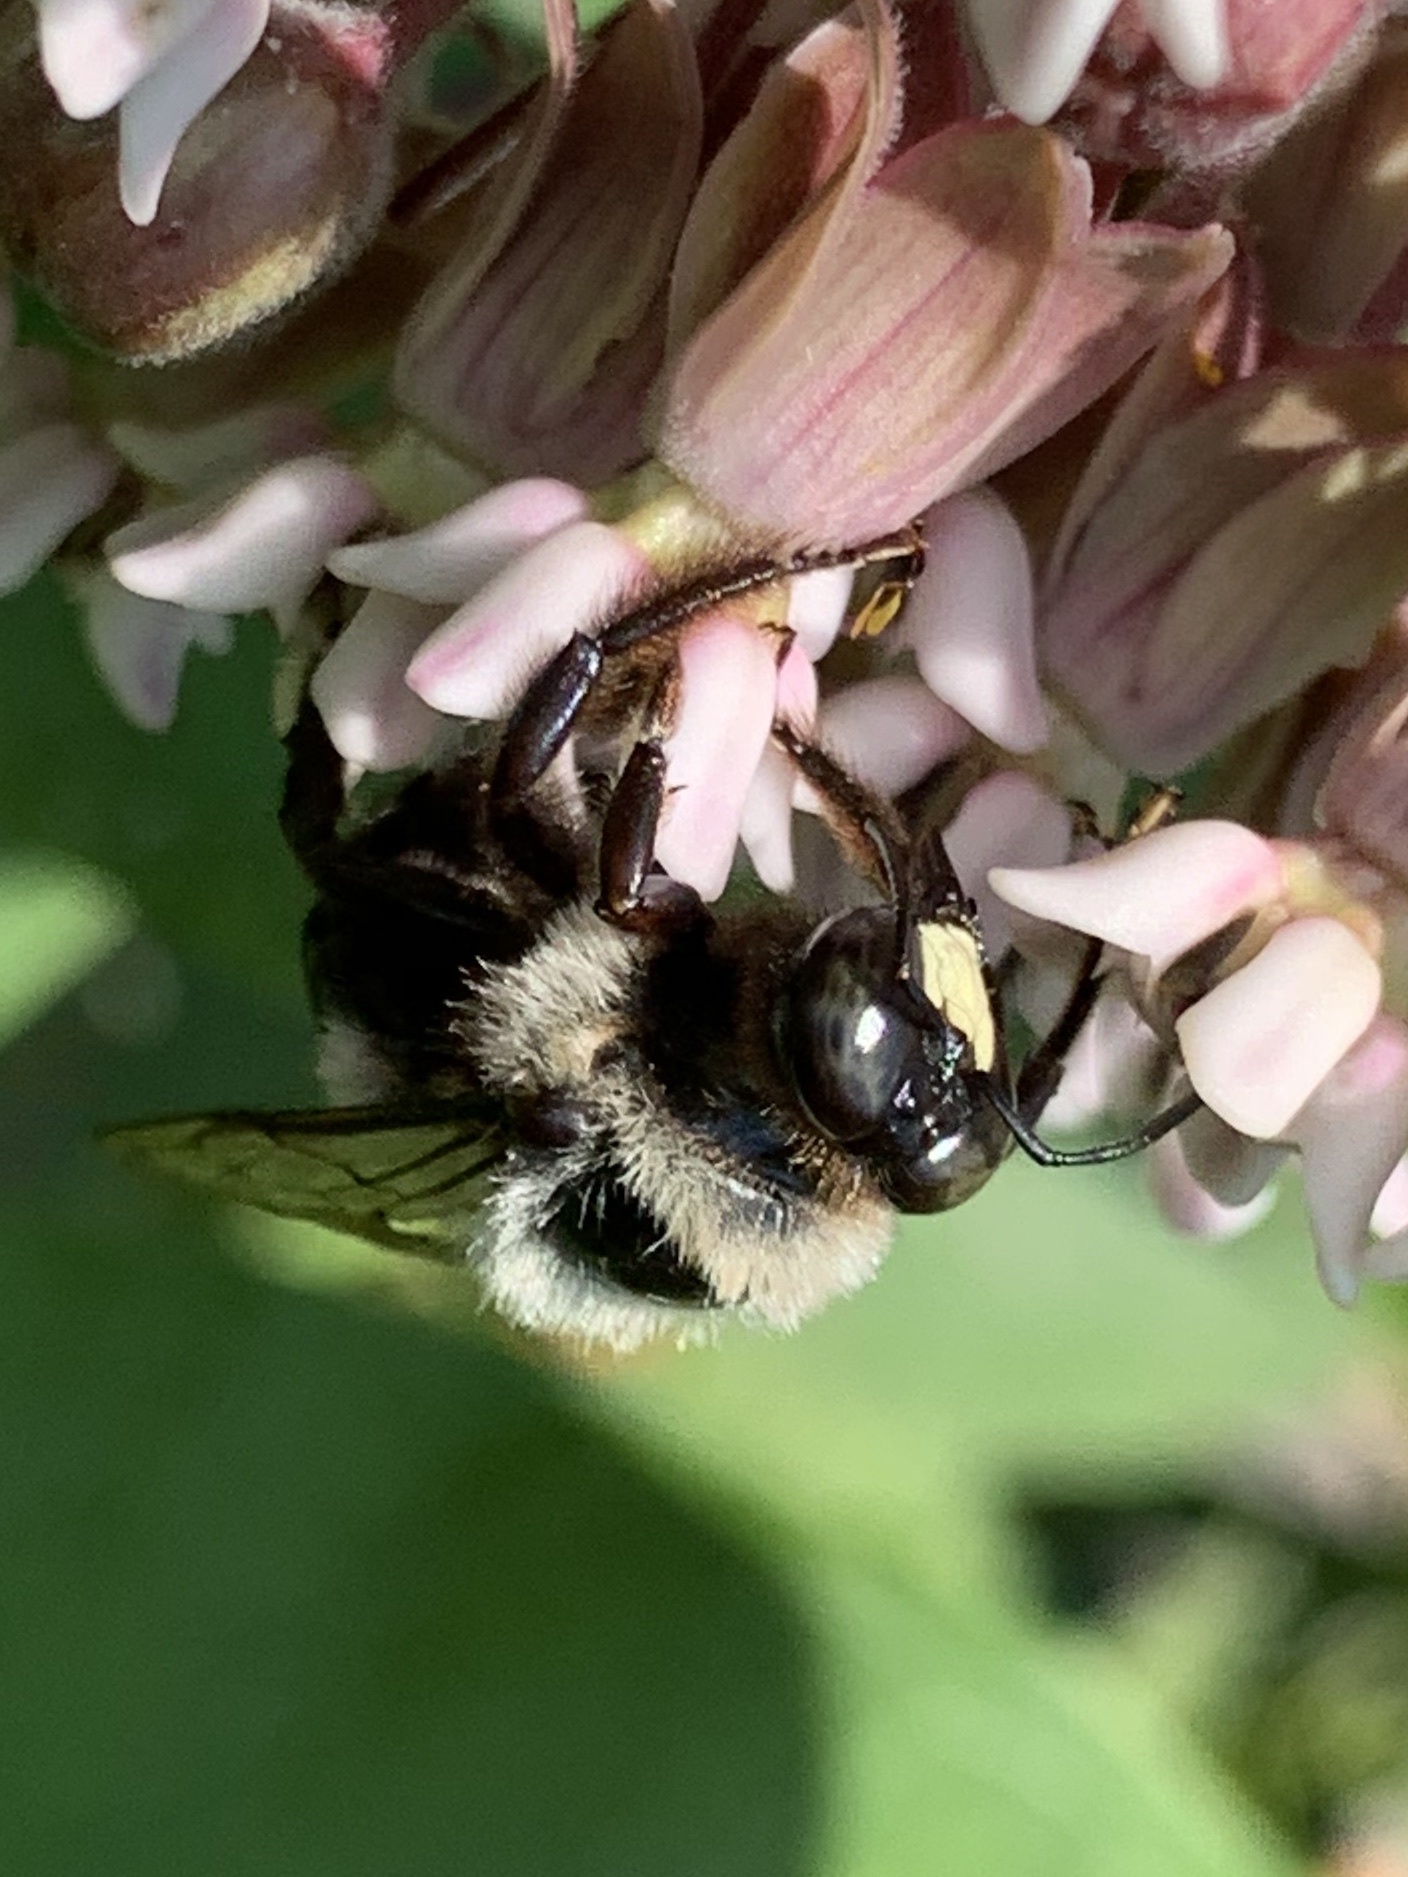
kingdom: Animalia
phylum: Arthropoda
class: Insecta
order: Hymenoptera
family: Apidae
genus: Xylocopa
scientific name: Xylocopa virginica
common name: Carpenter bee
